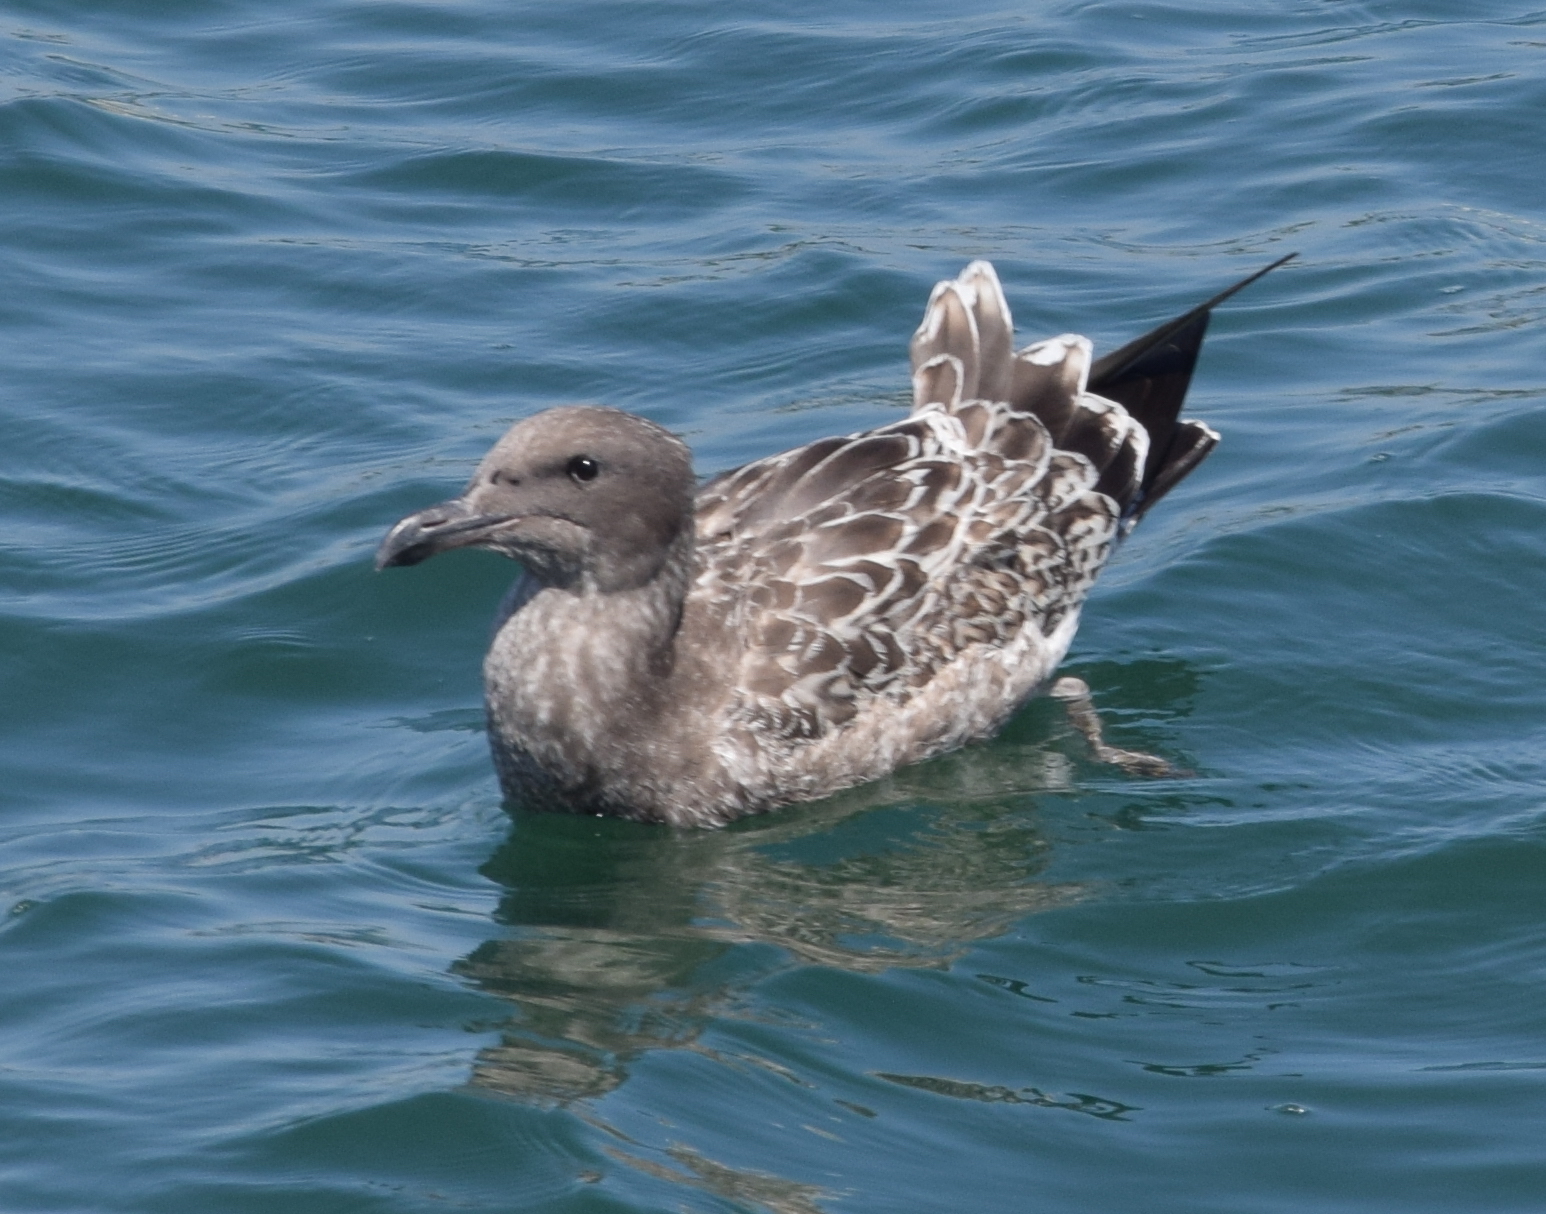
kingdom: Animalia
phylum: Chordata
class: Aves
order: Charadriiformes
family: Laridae
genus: Larus
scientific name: Larus occidentalis
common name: Western gull
